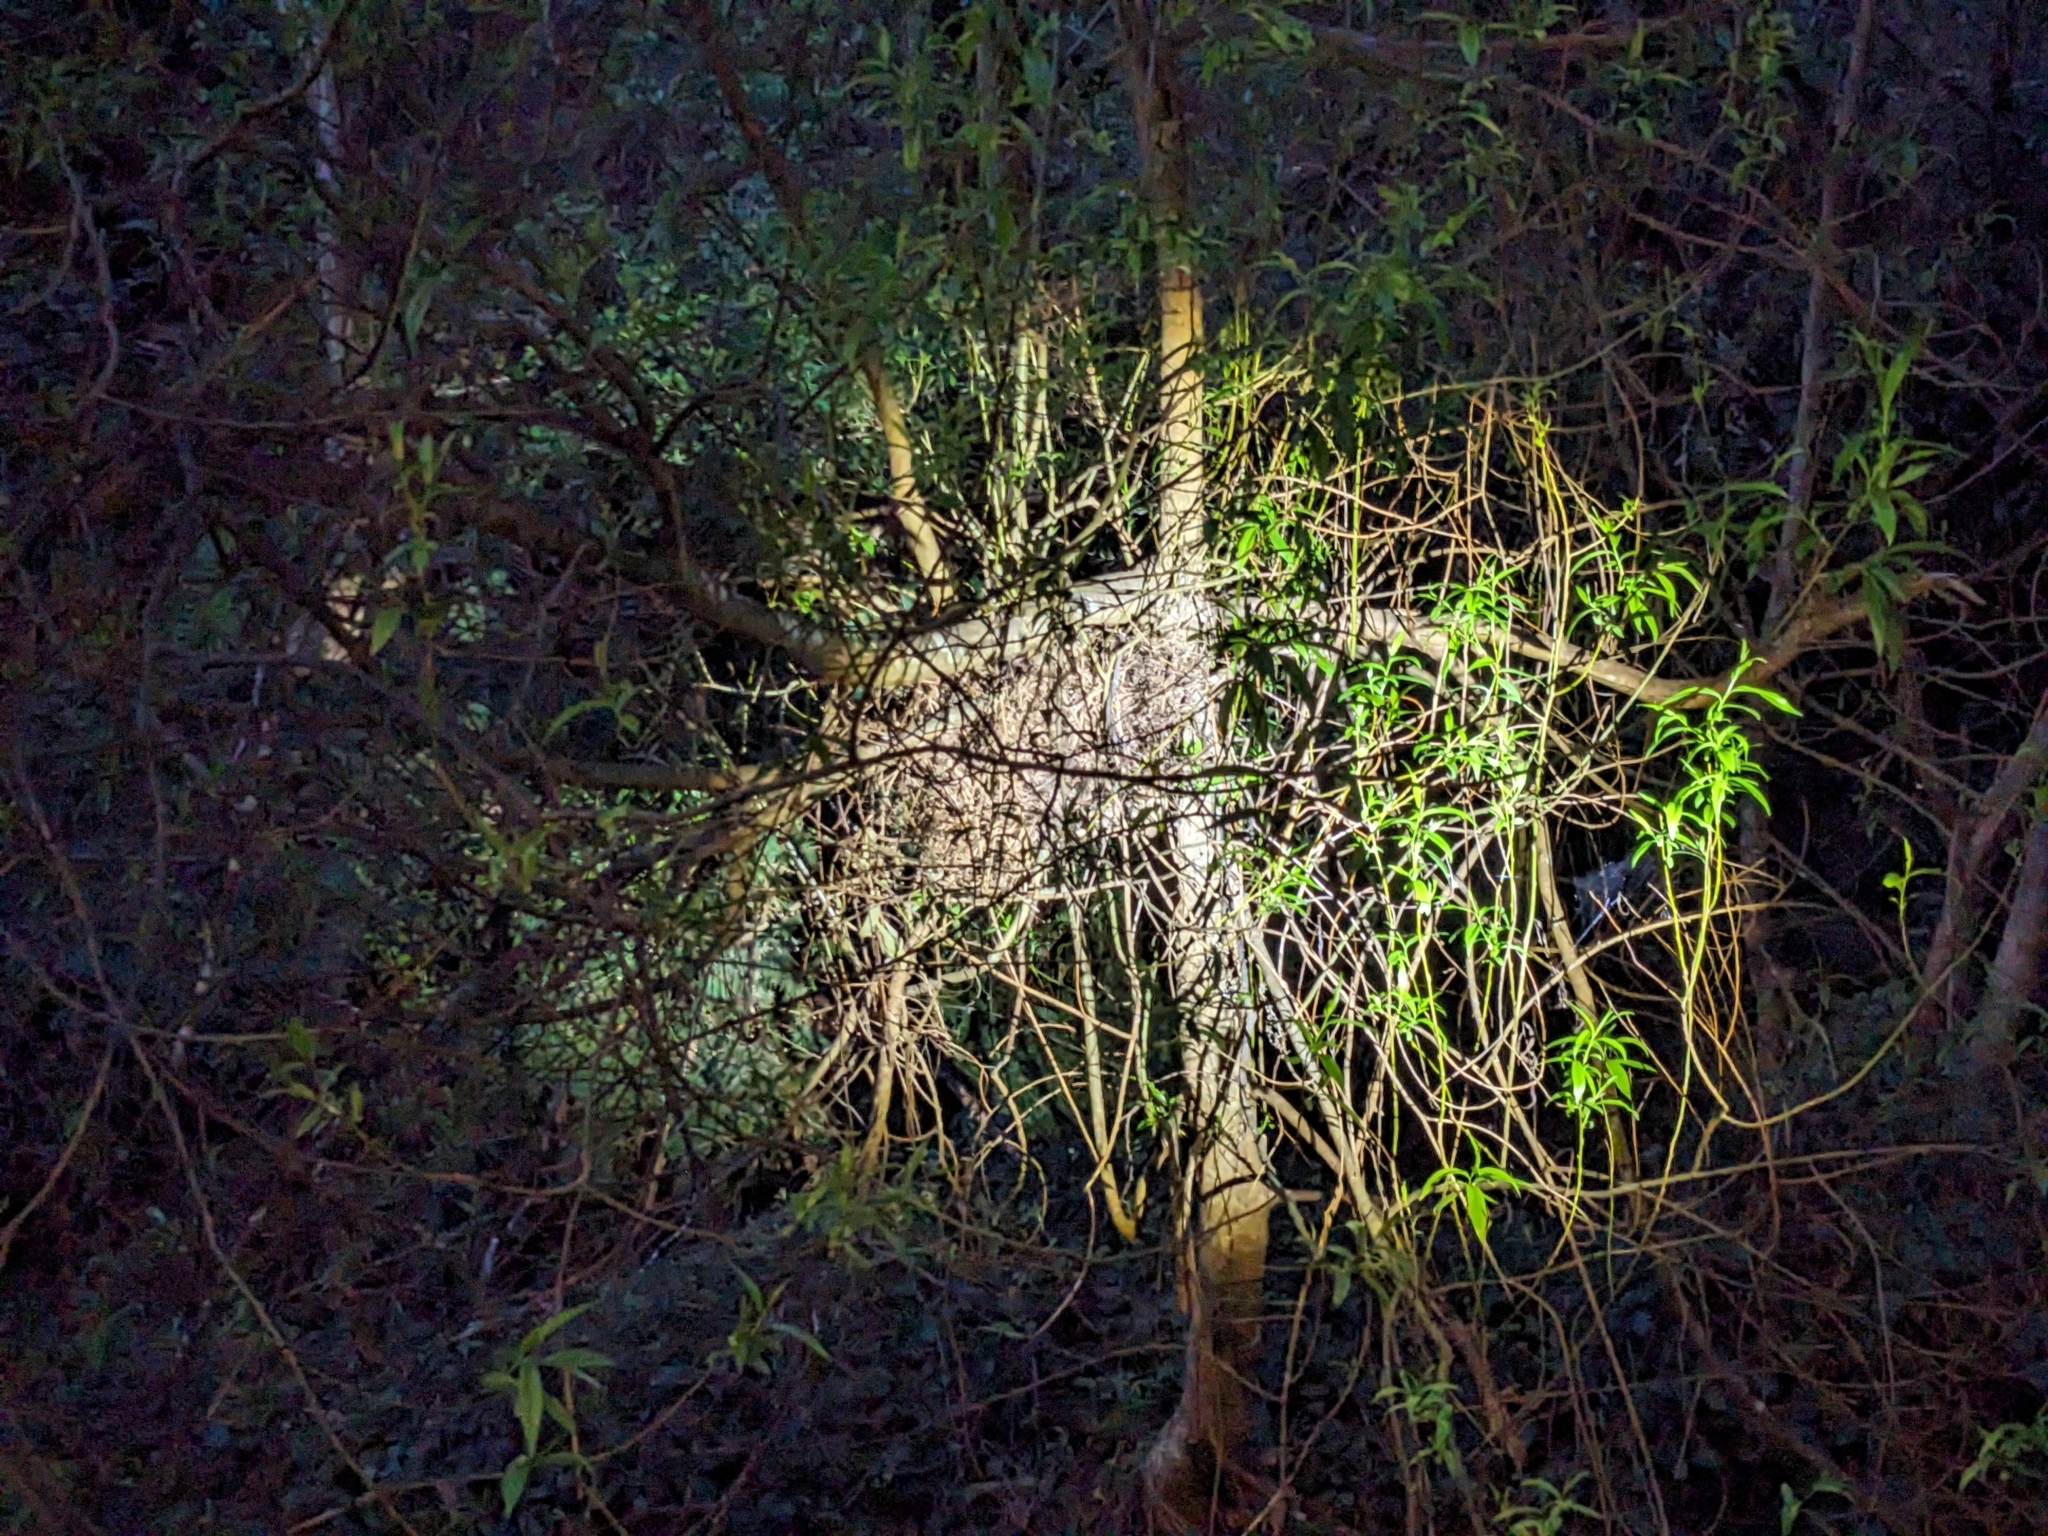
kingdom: Animalia
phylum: Chordata
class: Mammalia
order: Diprotodontia
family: Pseudocheiridae
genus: Pseudocheirus
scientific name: Pseudocheirus peregrinus
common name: Common ringtail possum
